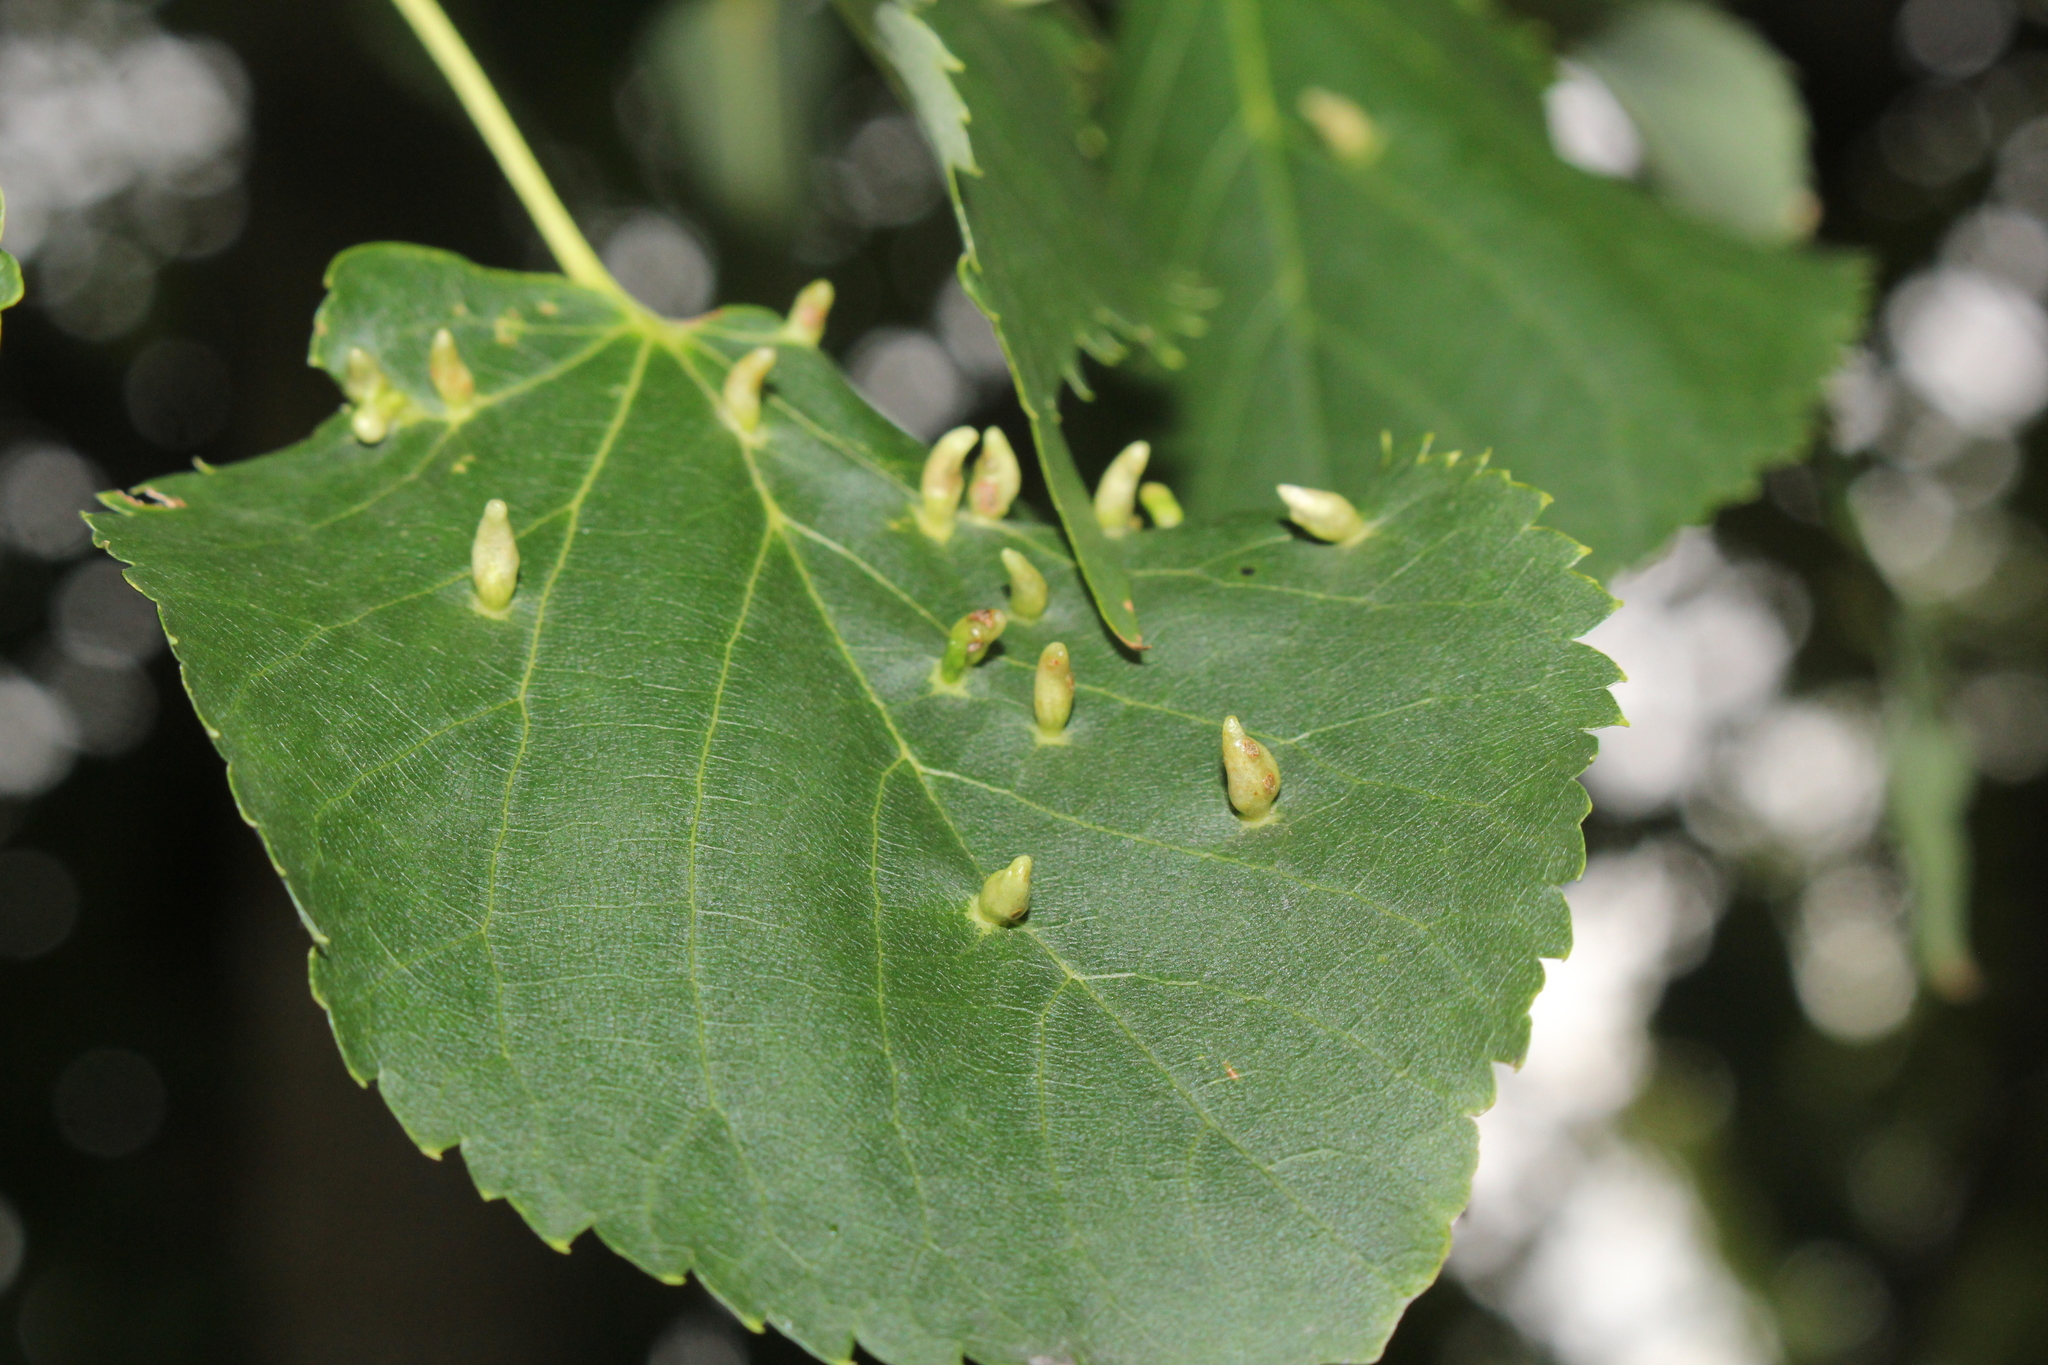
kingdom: Animalia
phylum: Arthropoda
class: Arachnida
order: Trombidiformes
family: Eriophyidae
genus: Eriophyes
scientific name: Eriophyes tiliae
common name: Red nail gall mite
